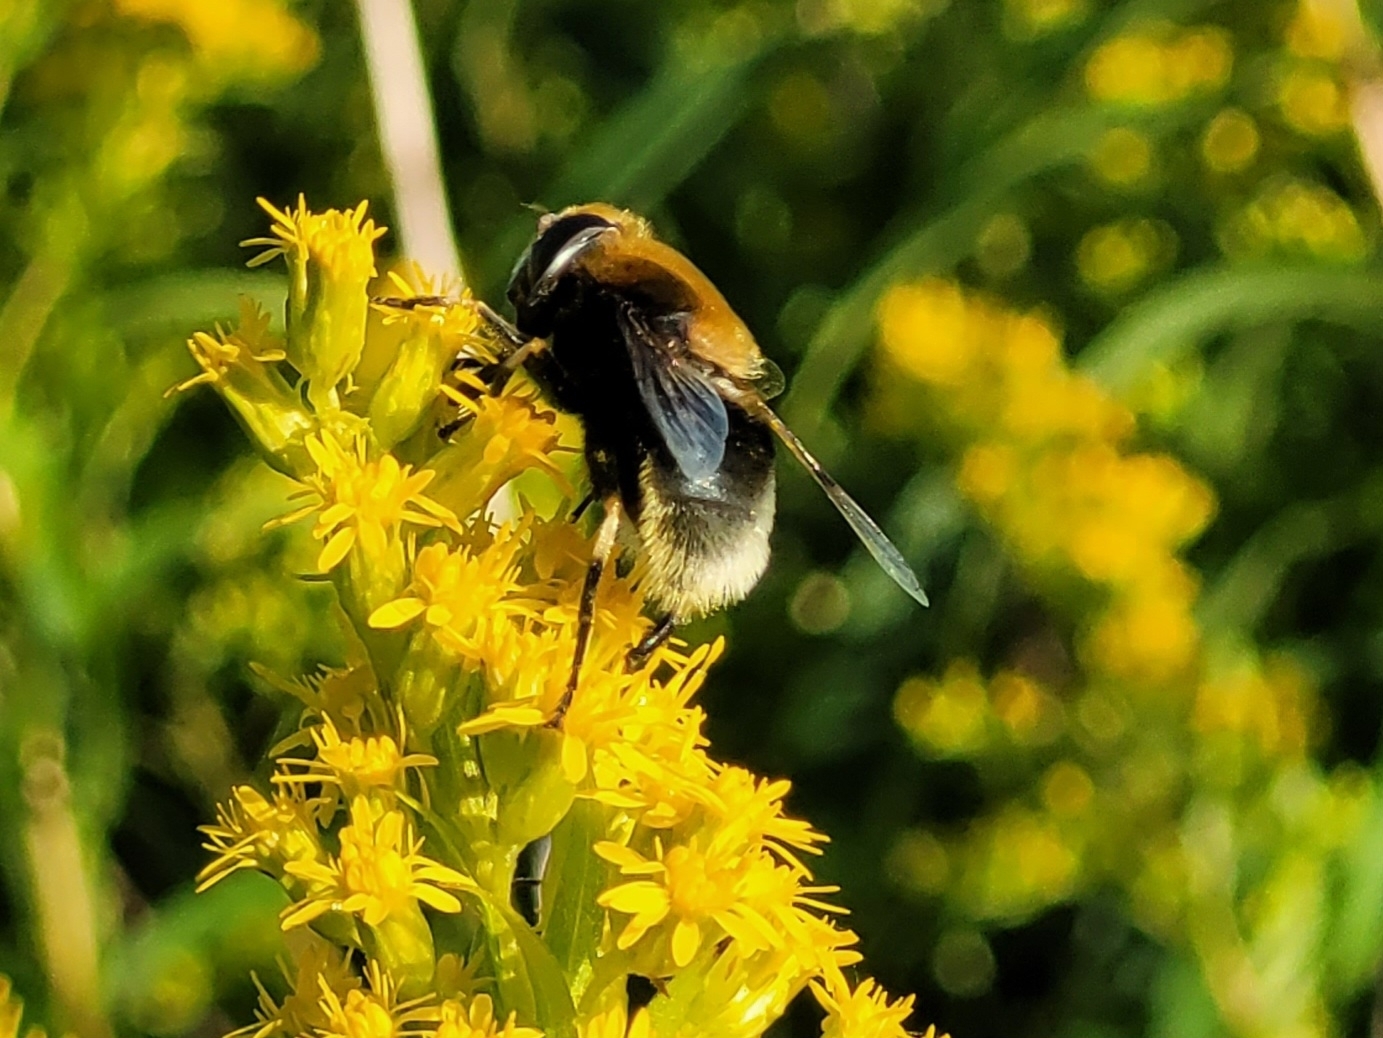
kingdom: Animalia
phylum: Arthropoda
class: Insecta
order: Diptera
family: Syrphidae
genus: Eristalis
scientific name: Eristalis intricaria
